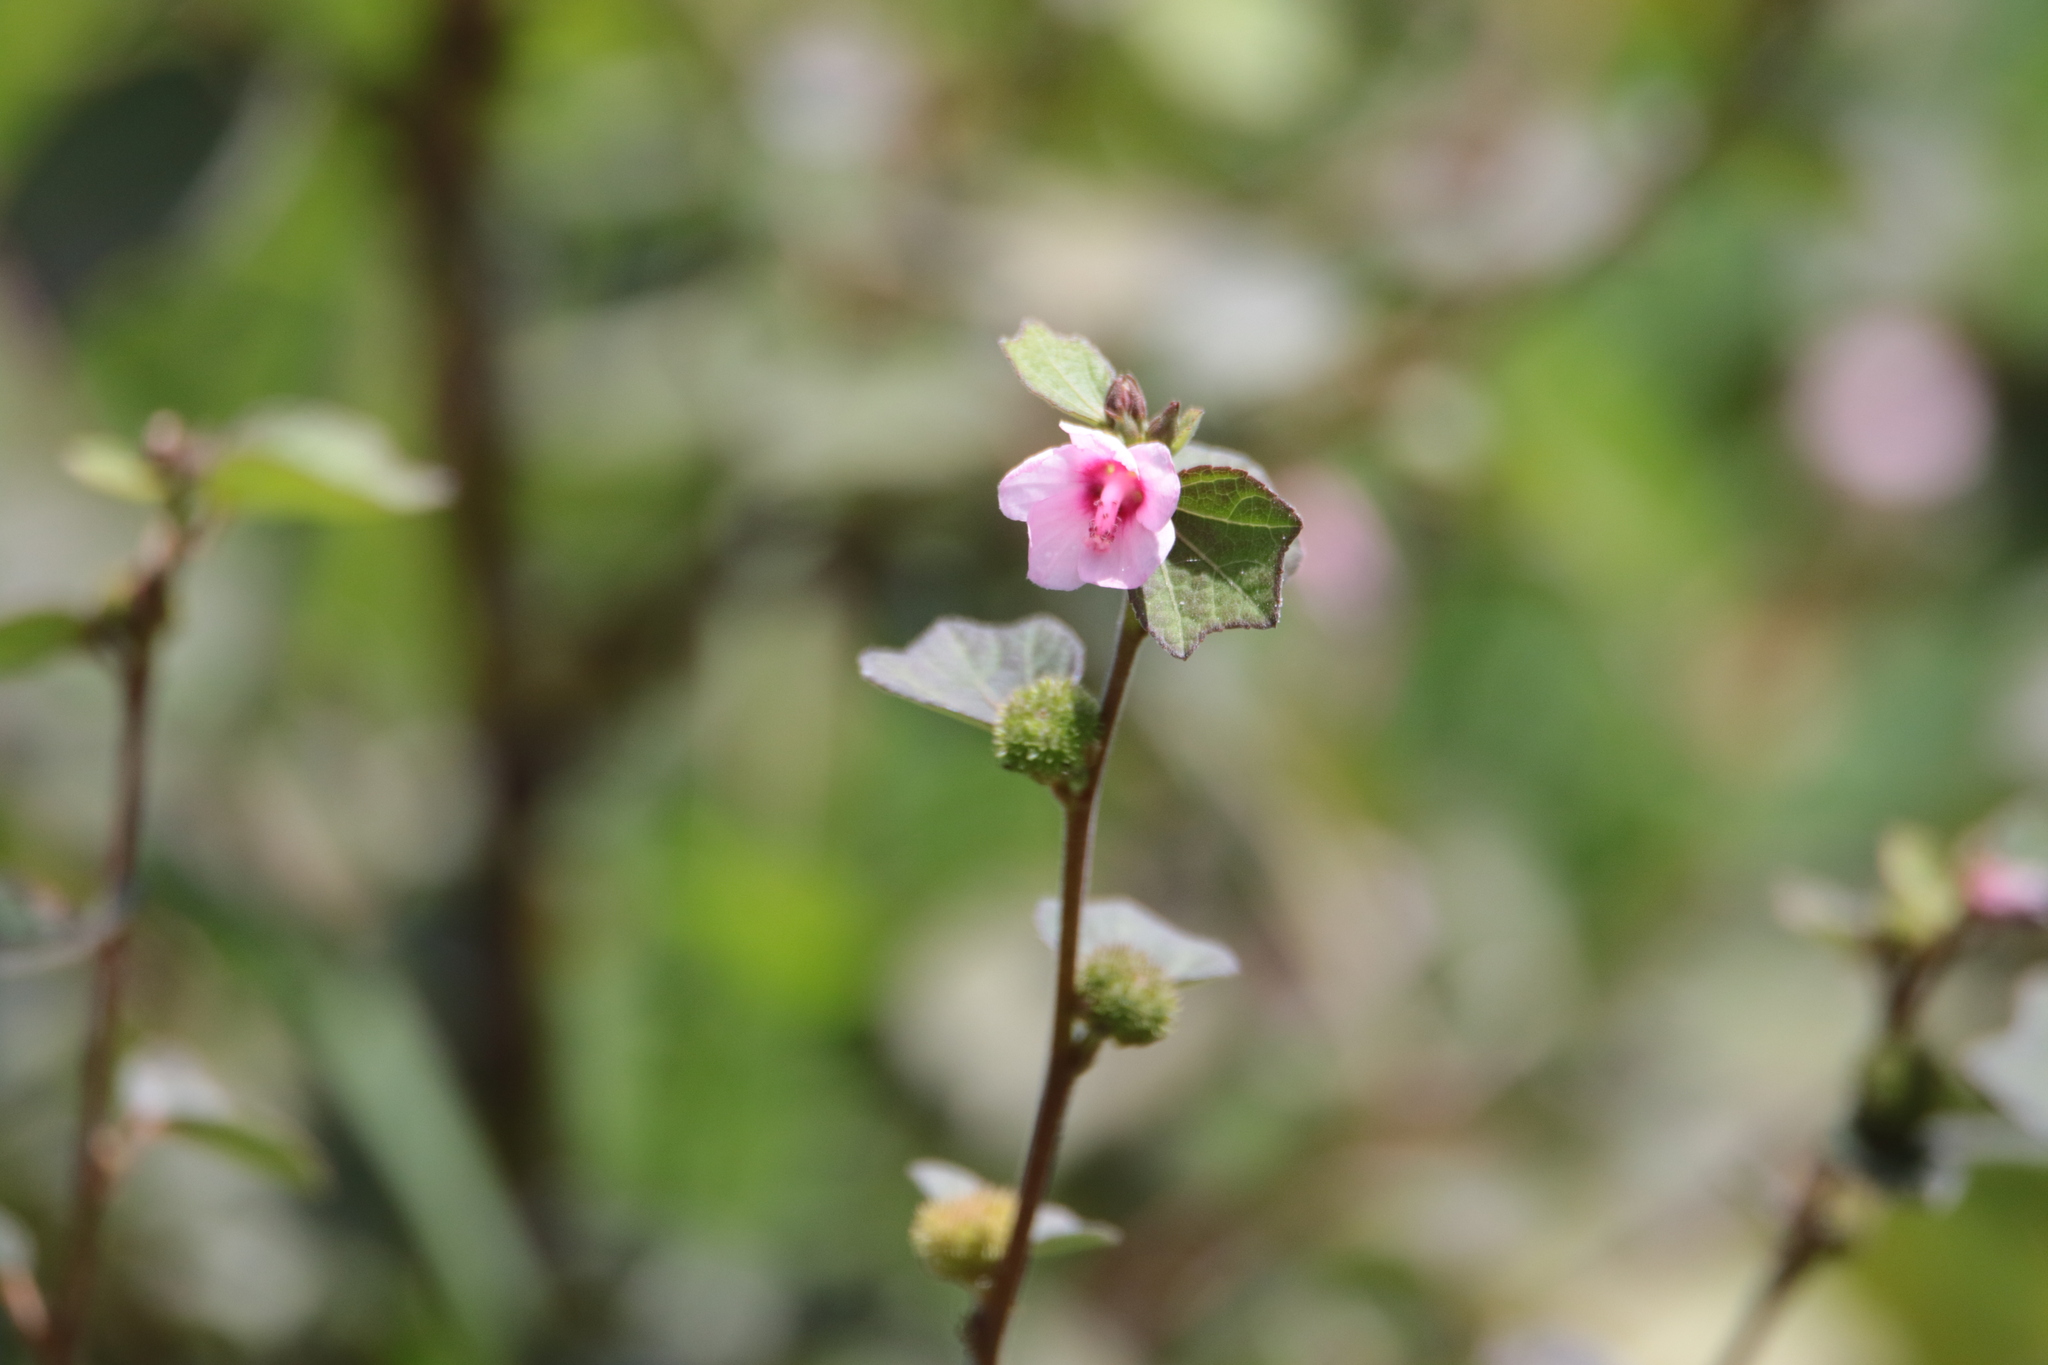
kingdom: Plantae
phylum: Tracheophyta
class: Magnoliopsida
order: Malvales
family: Malvaceae
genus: Urena
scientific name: Urena lobata
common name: Caesarweed
